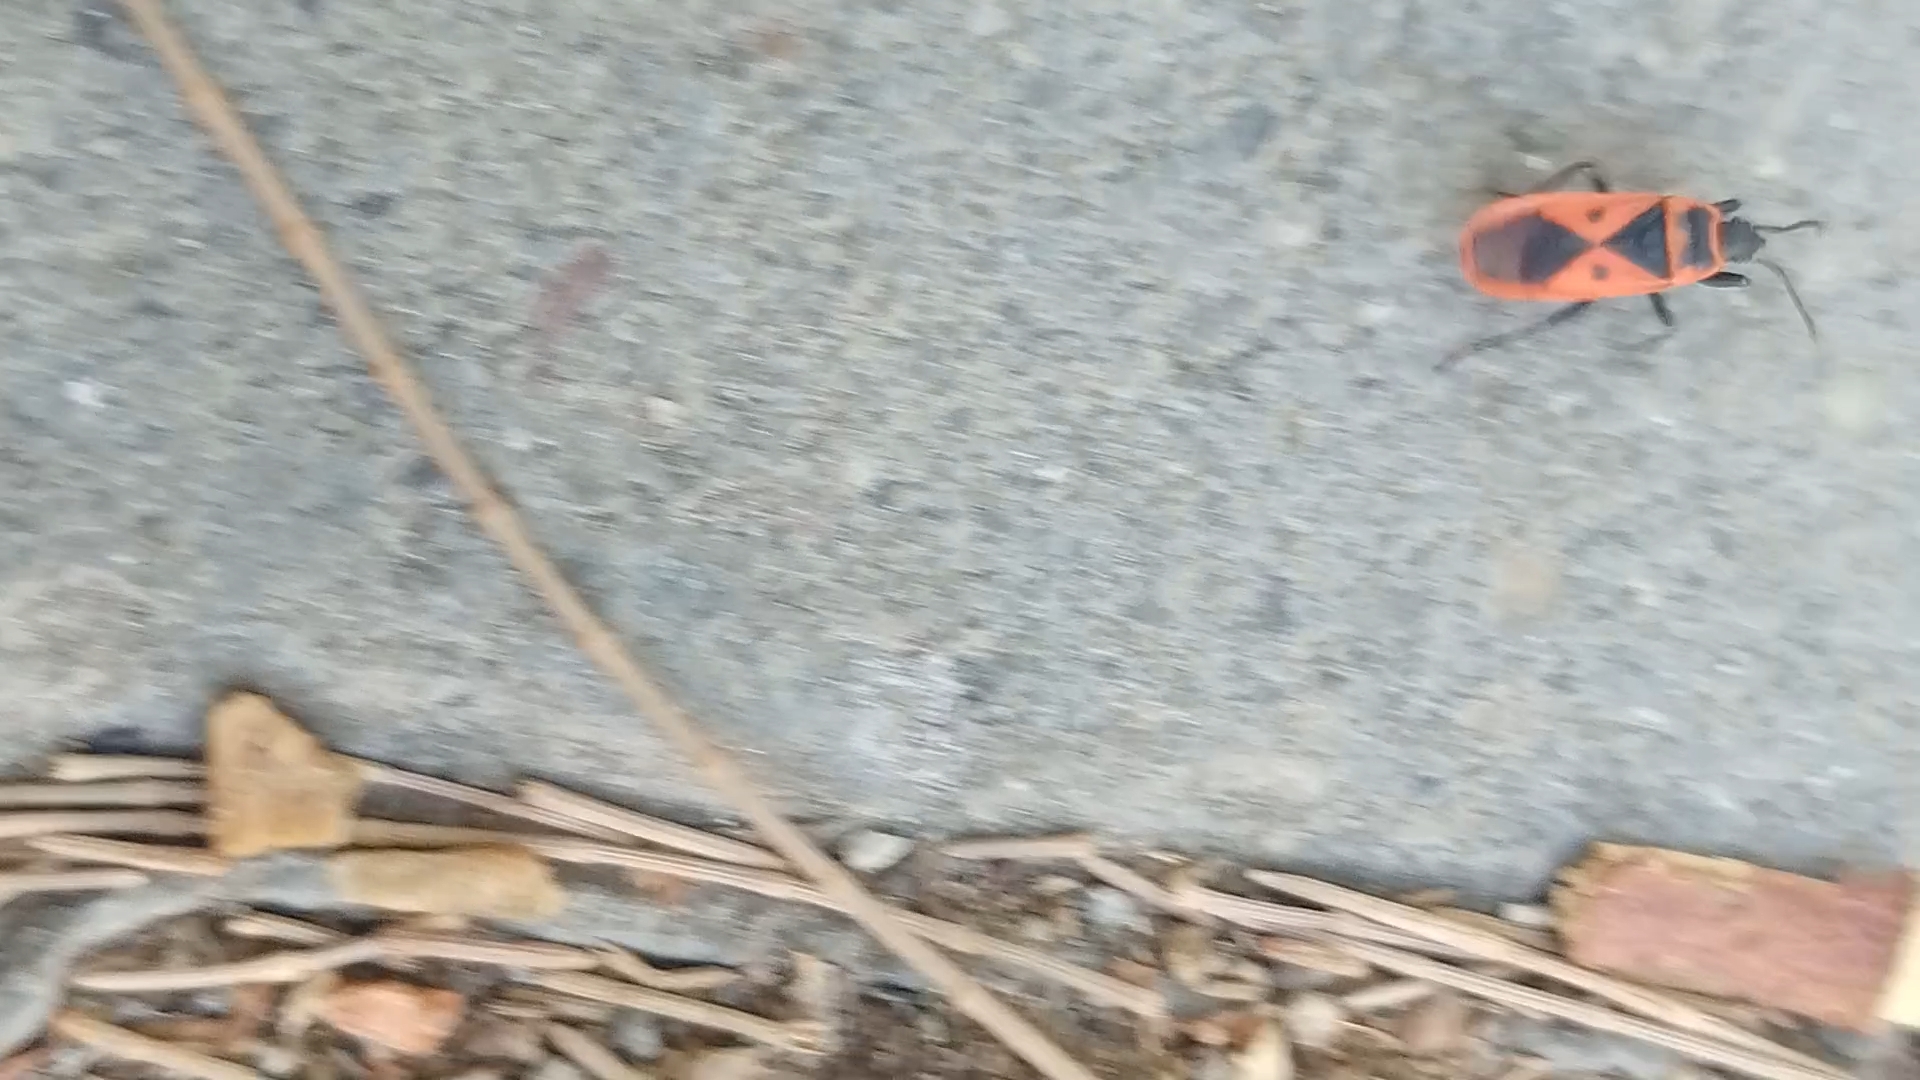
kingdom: Animalia
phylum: Arthropoda
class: Insecta
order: Hemiptera
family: Pyrrhocoridae
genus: Scantius
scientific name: Scantius aegyptius
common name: Red bug
